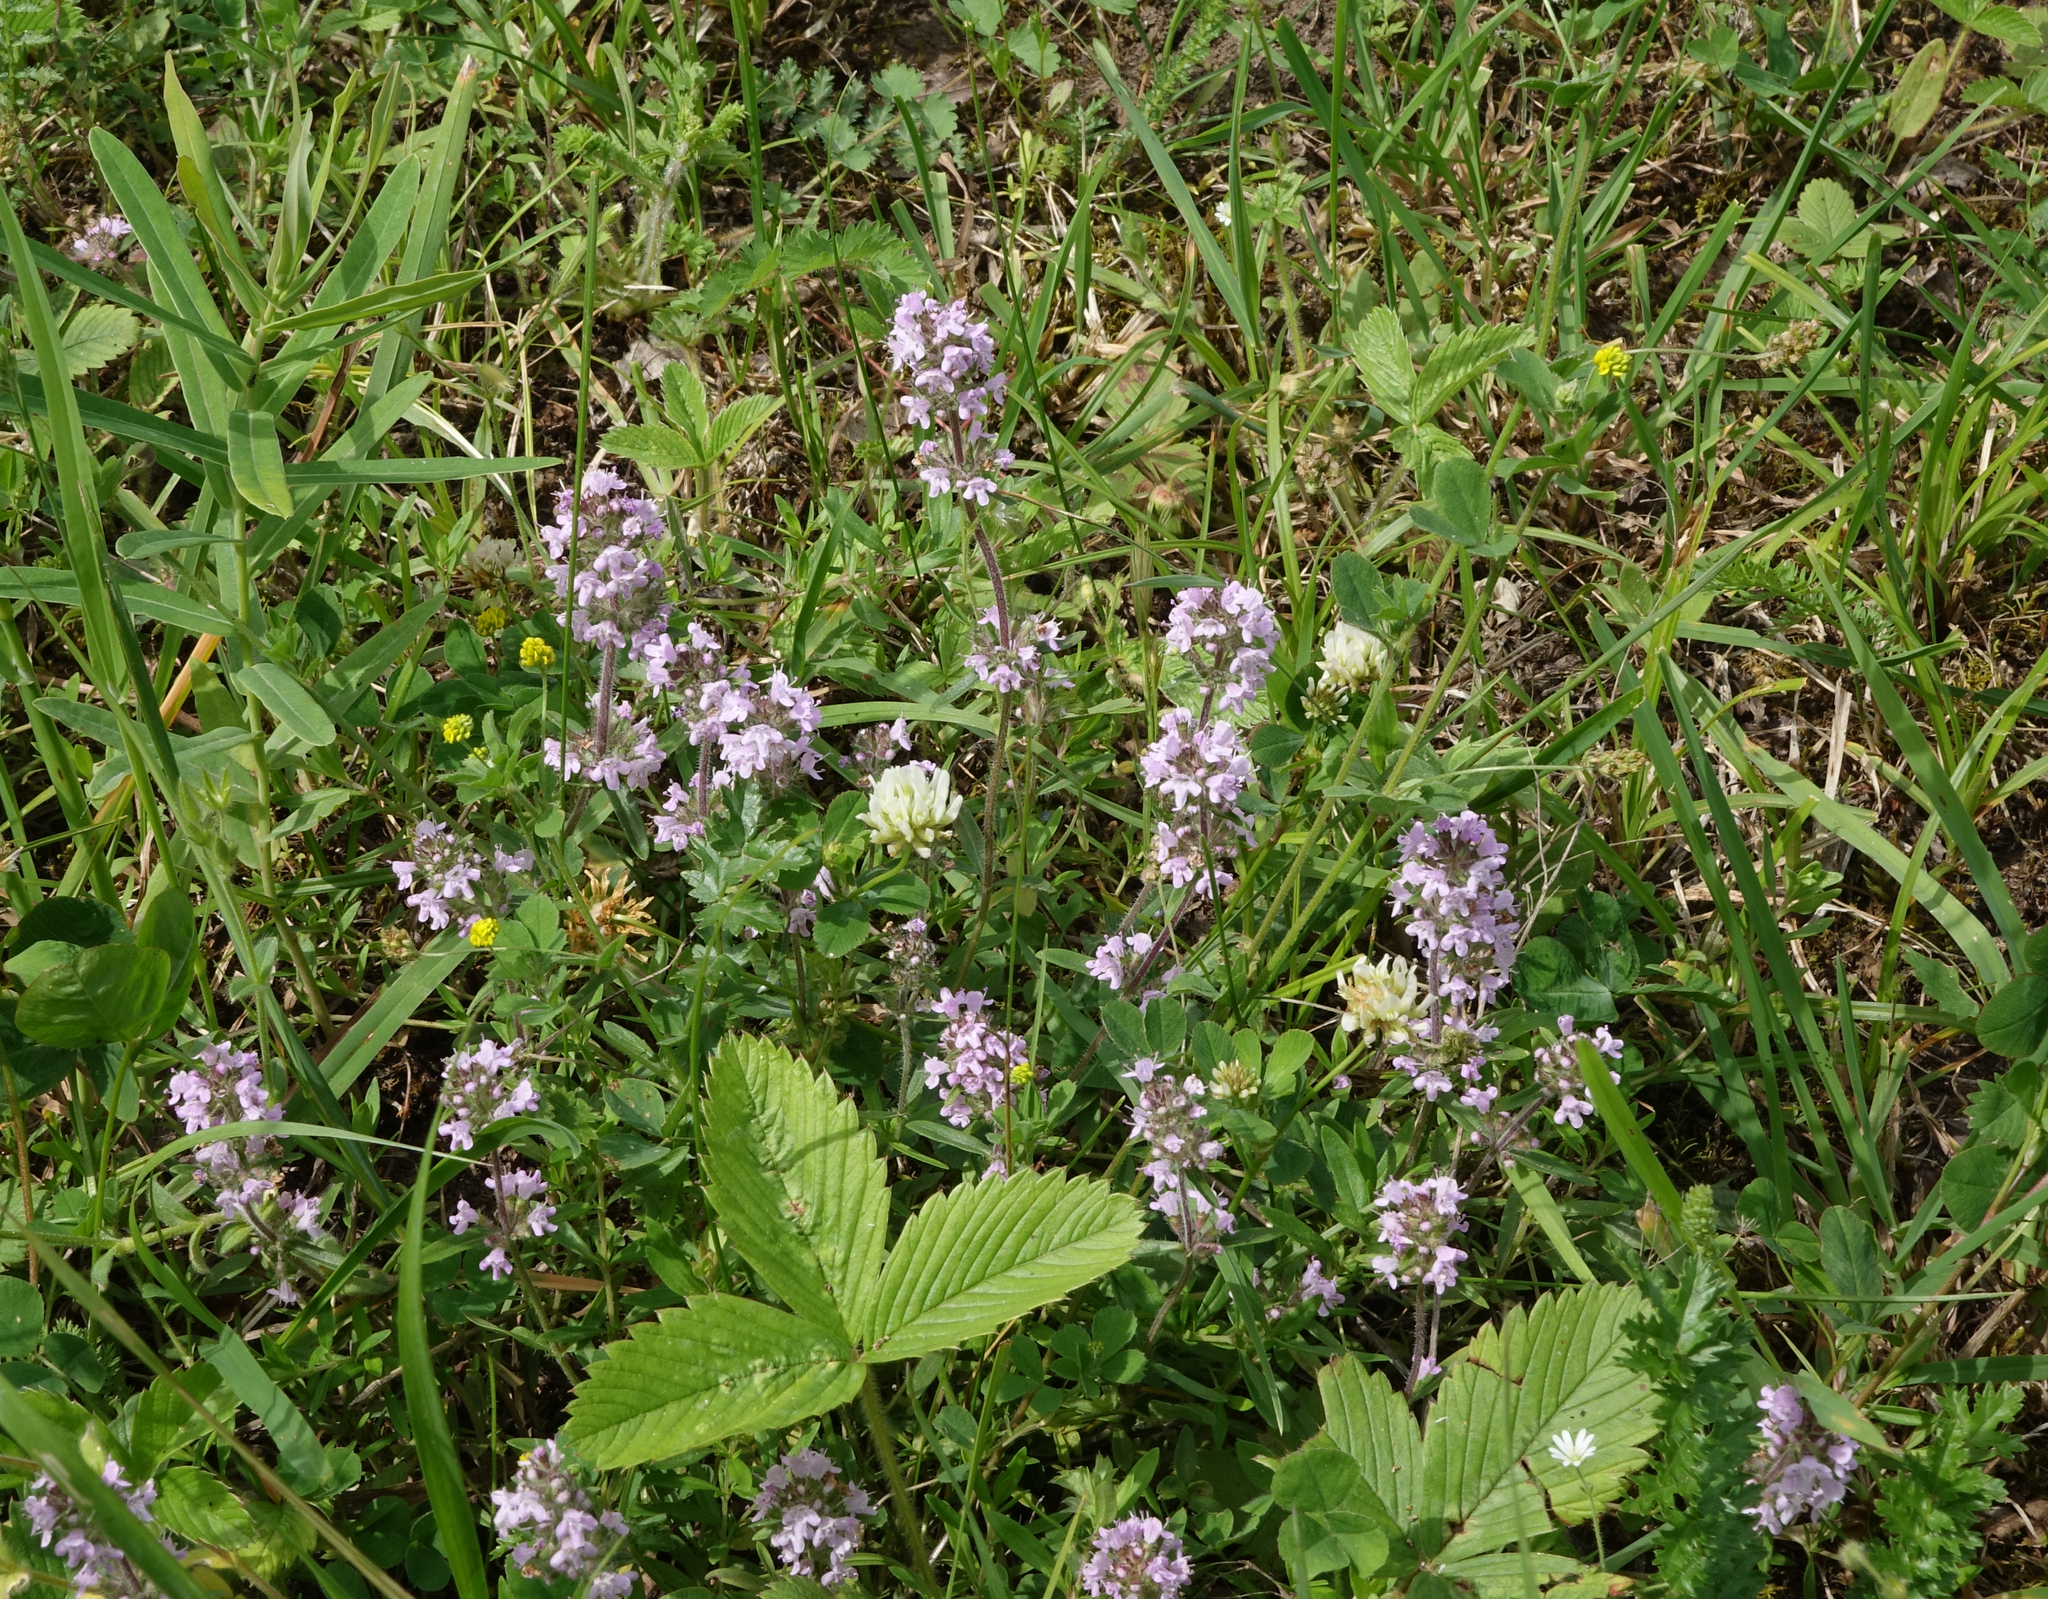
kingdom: Plantae
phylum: Tracheophyta
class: Magnoliopsida
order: Lamiales
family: Lamiaceae
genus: Thymus
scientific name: Thymus pannonicus
